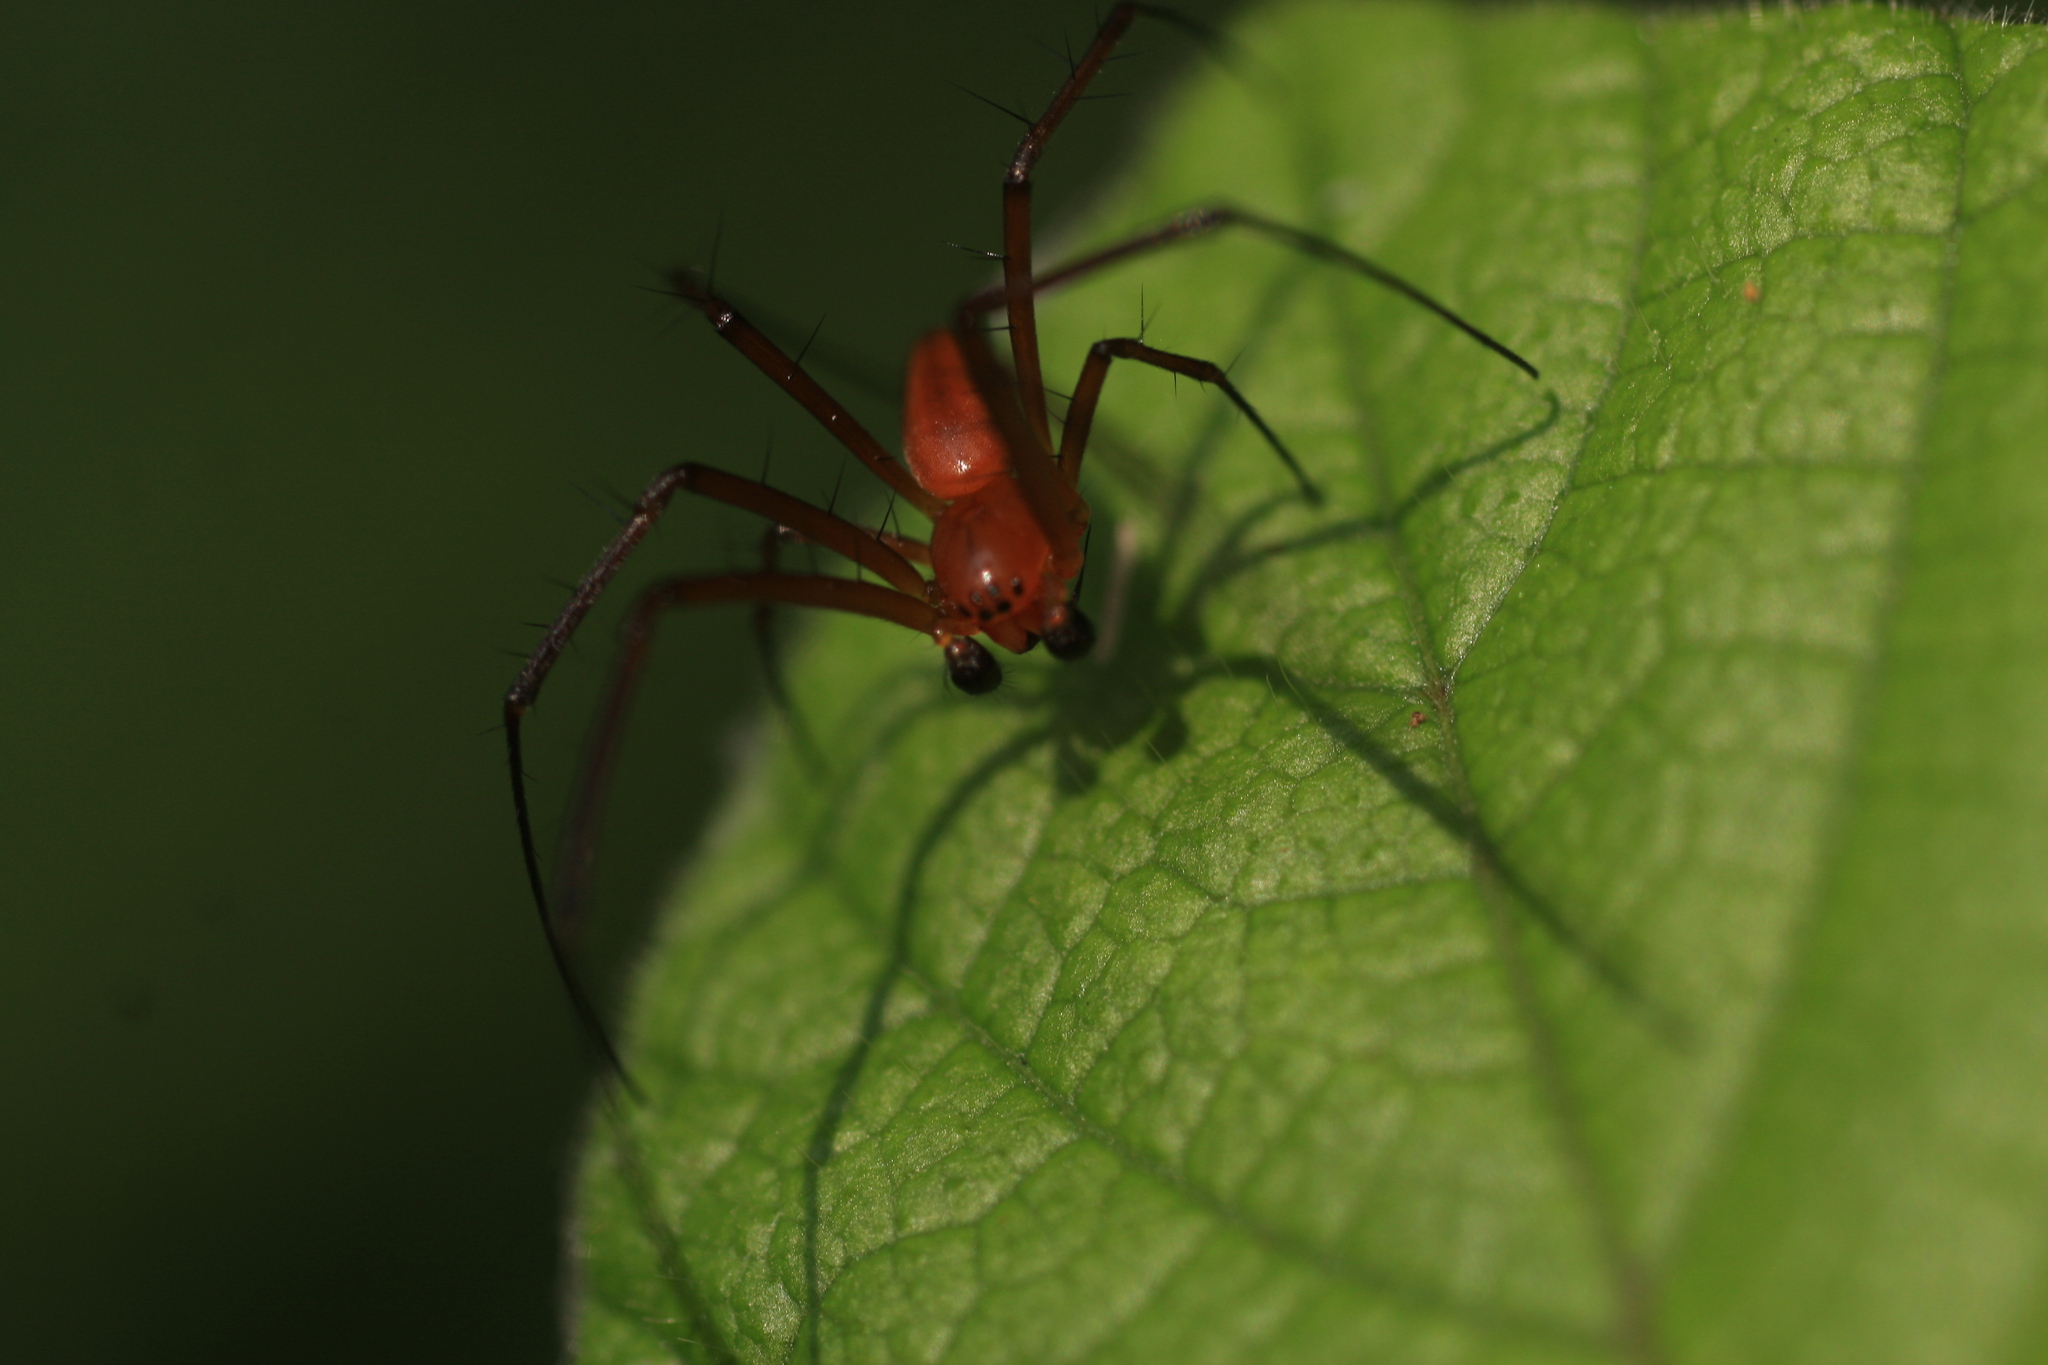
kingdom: Animalia
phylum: Arthropoda
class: Arachnida
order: Araneae
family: Araneidae
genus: Nephila
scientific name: Nephila pilipes
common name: Giant golden orb weaver
